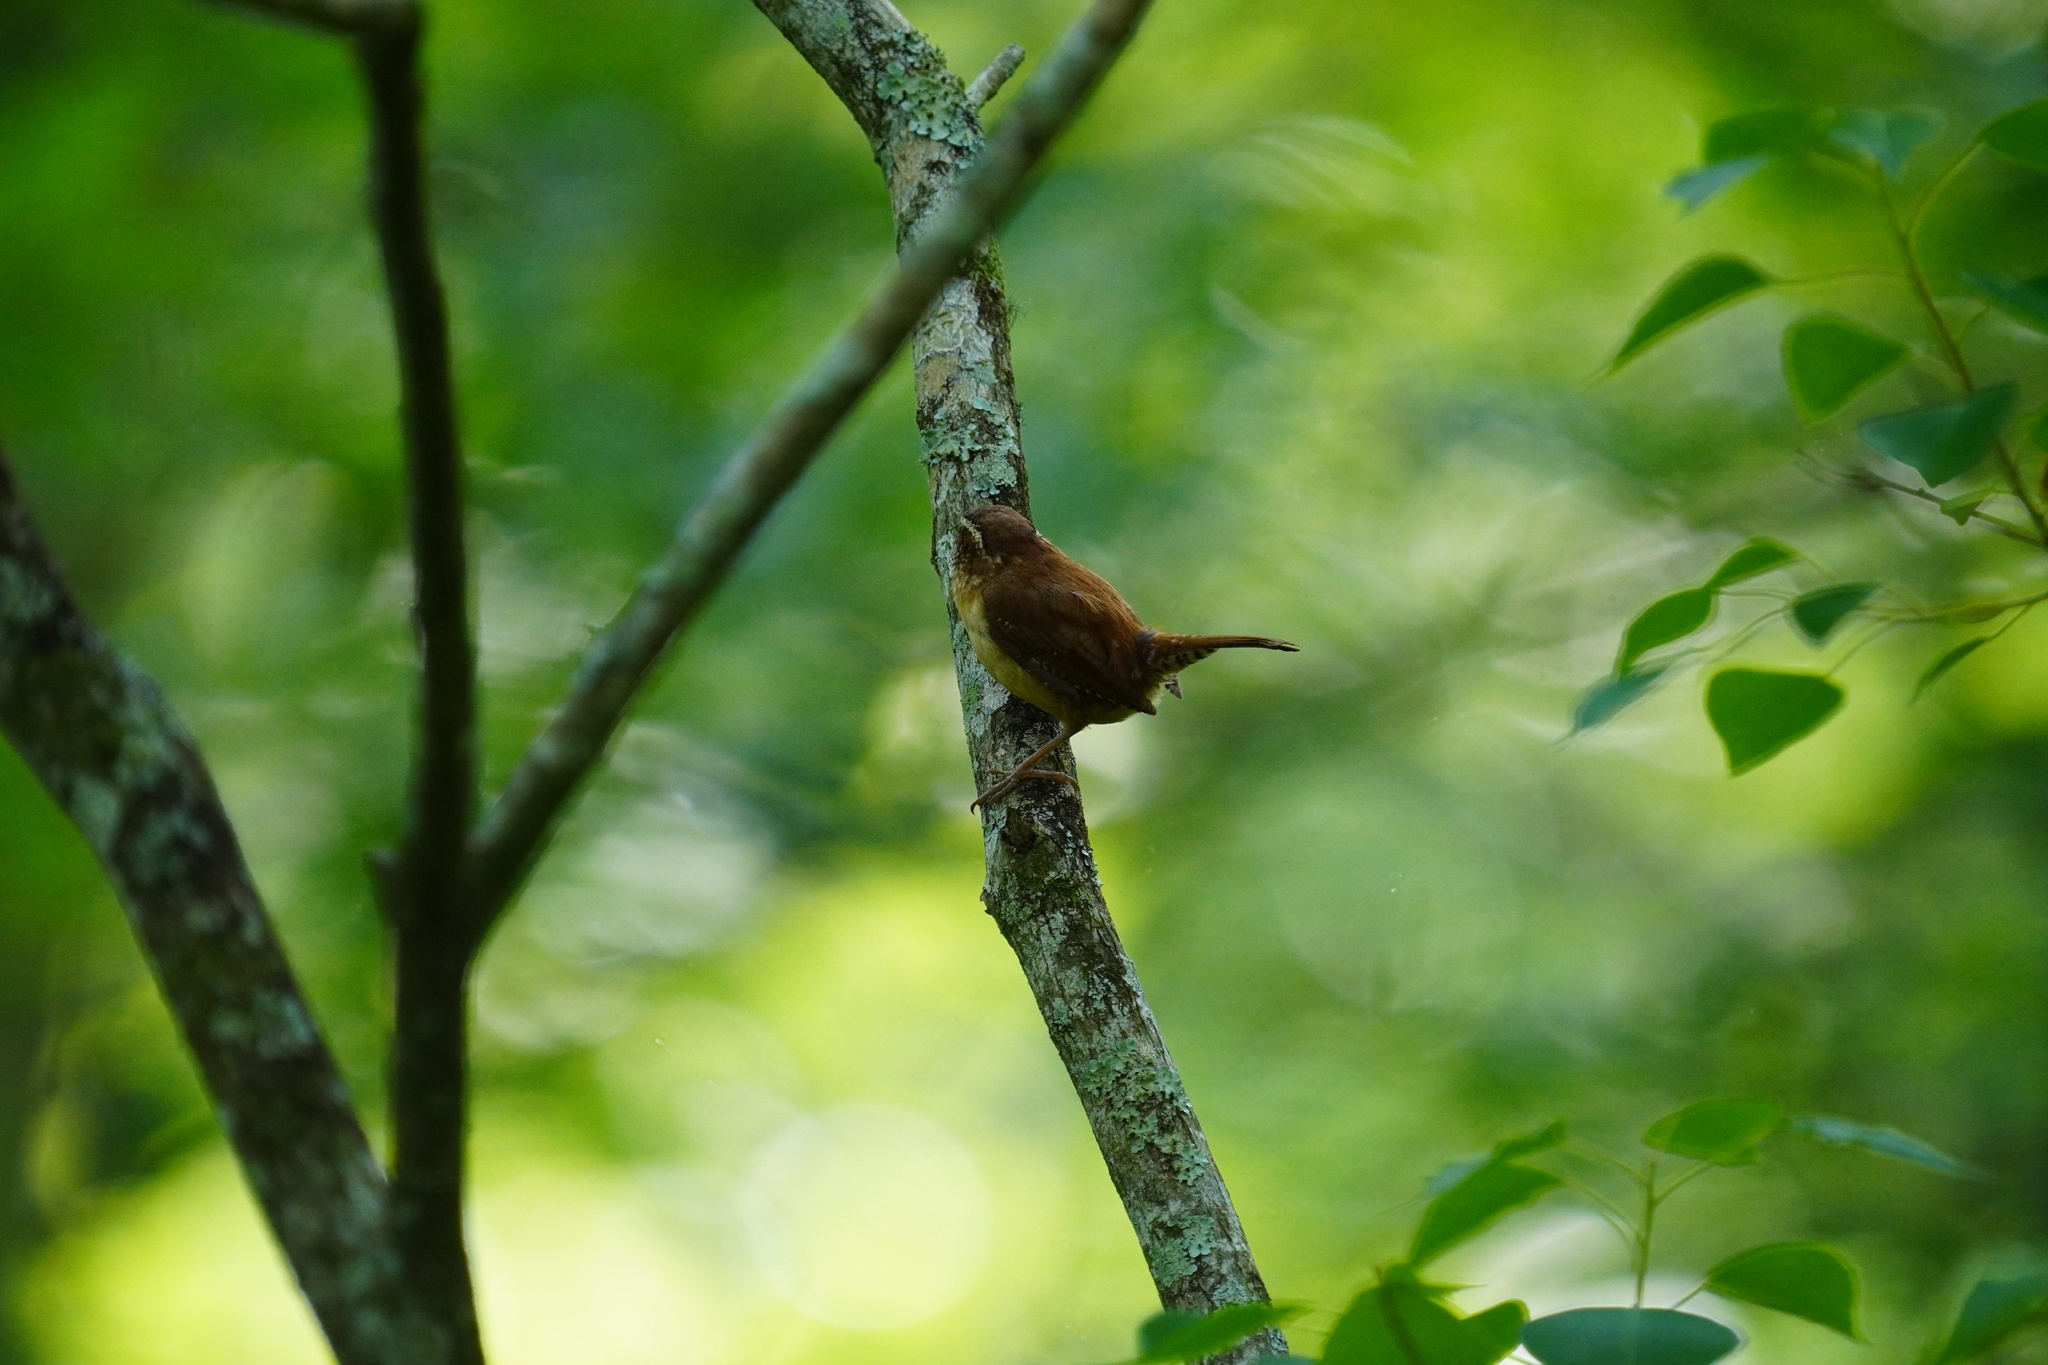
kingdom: Animalia
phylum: Chordata
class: Aves
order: Passeriformes
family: Troglodytidae
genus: Thryothorus
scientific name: Thryothorus ludovicianus
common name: Carolina wren
